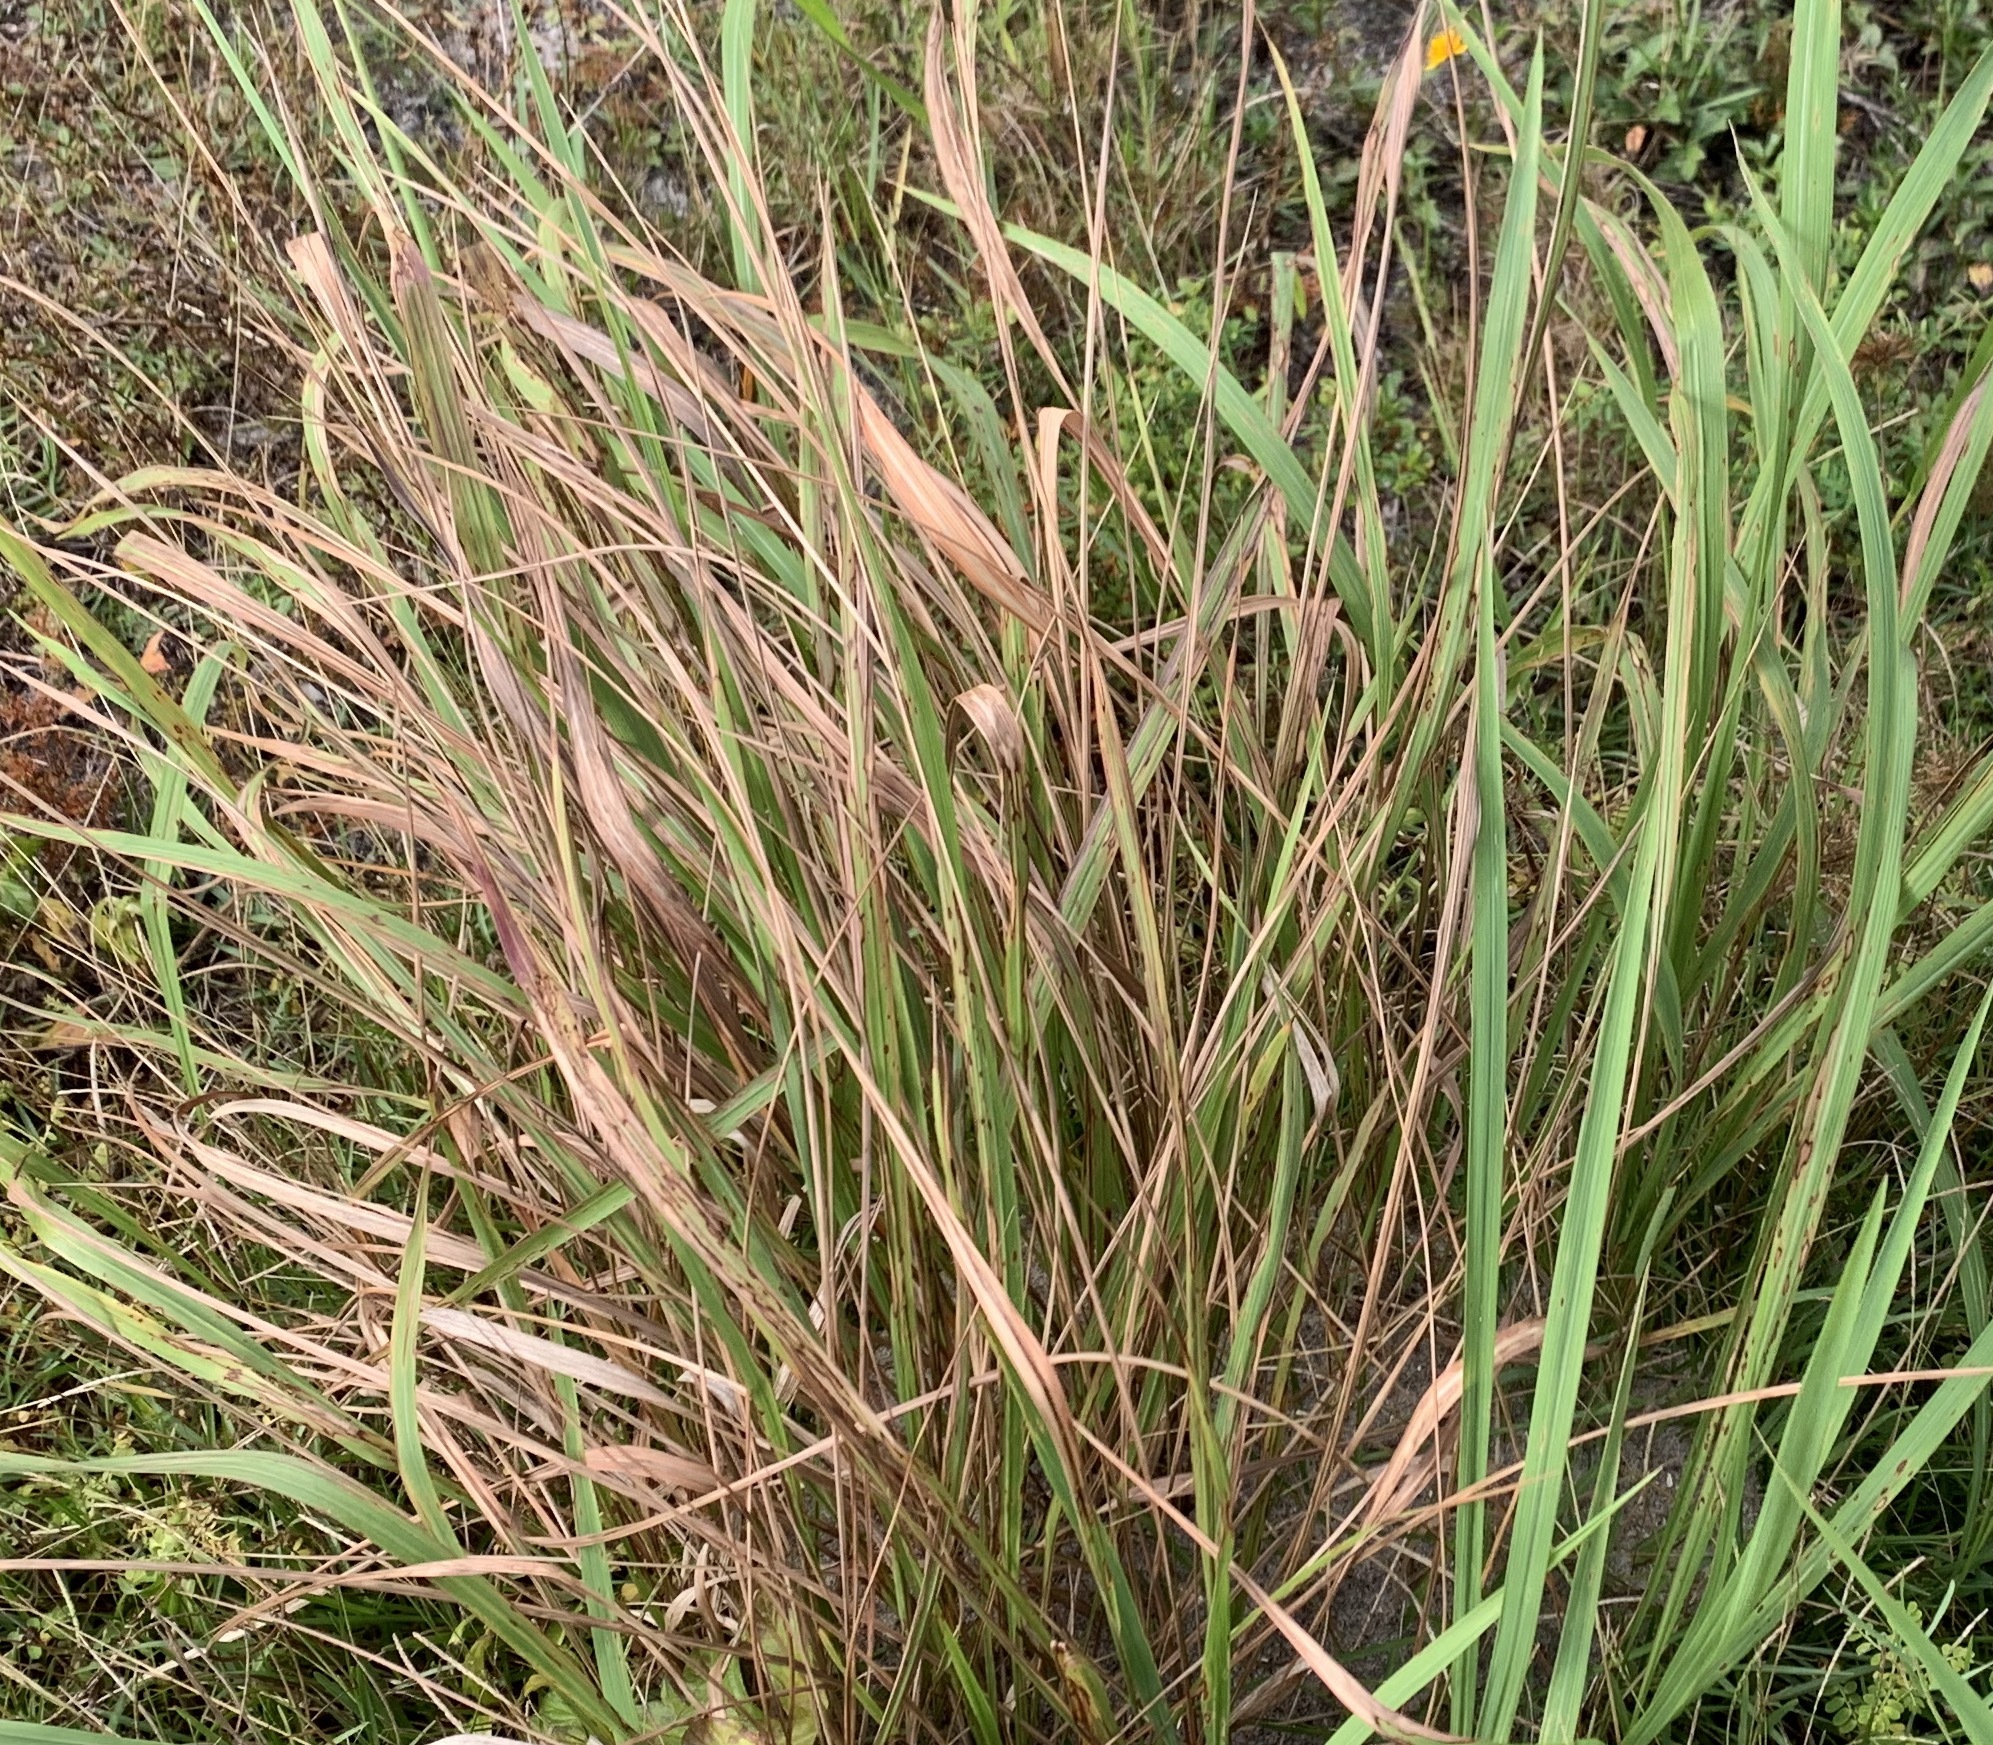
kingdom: Plantae
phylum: Tracheophyta
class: Liliopsida
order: Poales
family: Poaceae
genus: Imperata
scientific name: Imperata cylindrica
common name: Cogongrass
